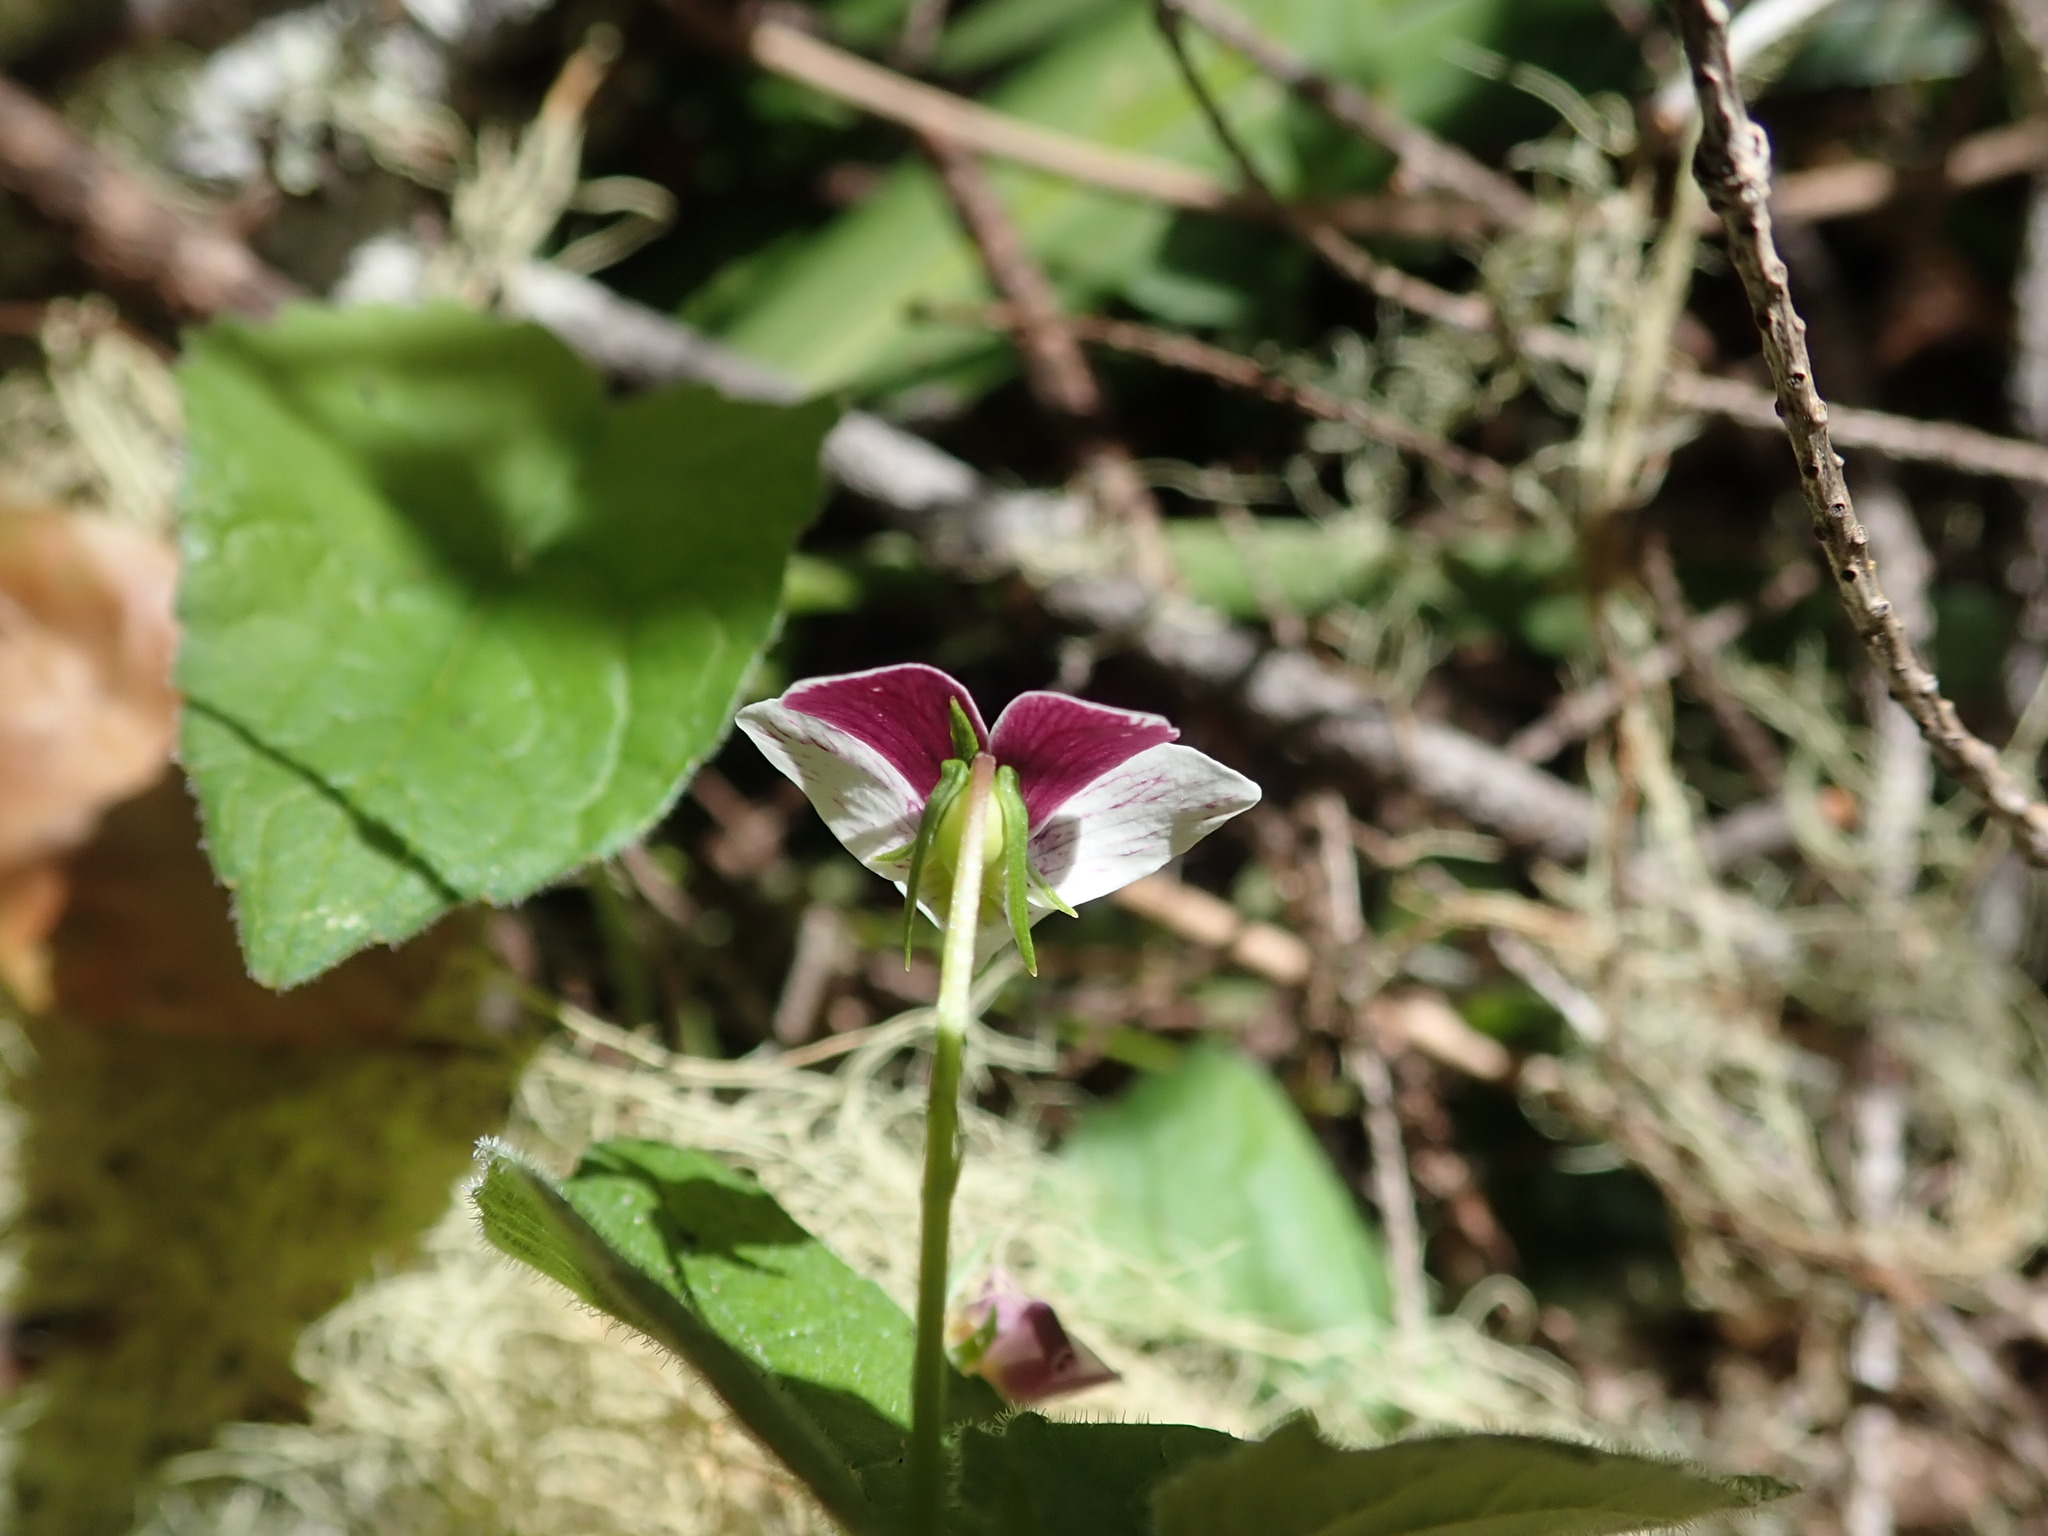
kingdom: Plantae
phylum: Tracheophyta
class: Magnoliopsida
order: Malpighiales
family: Violaceae
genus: Viola
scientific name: Viola ocellata
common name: Western heart's ease
